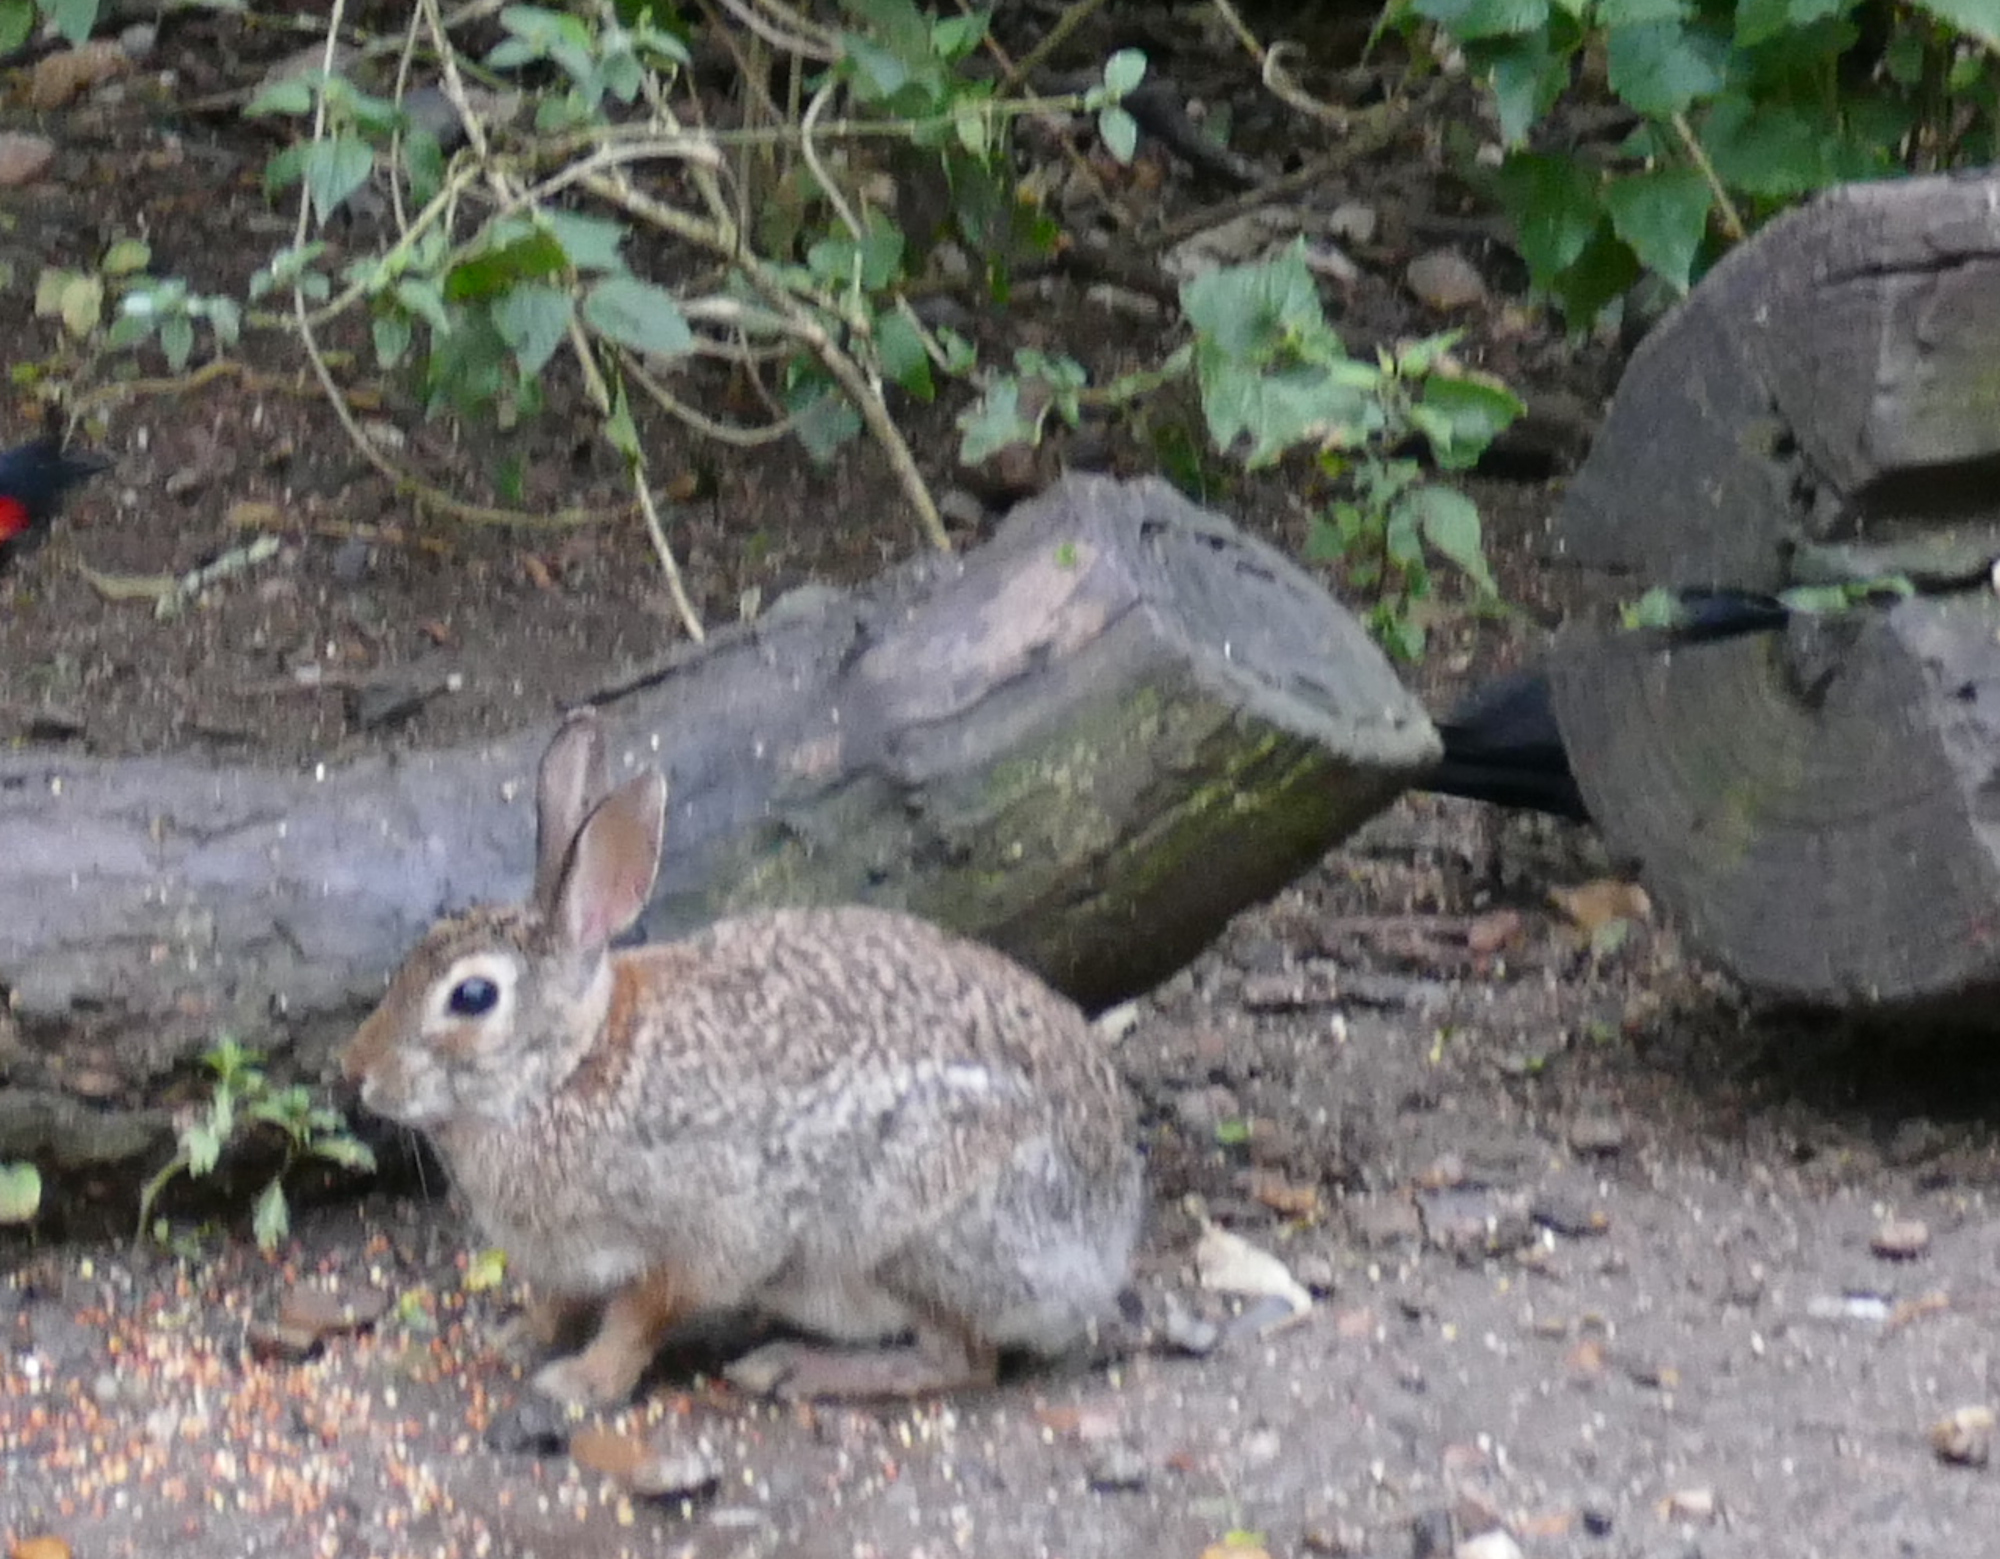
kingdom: Animalia
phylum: Chordata
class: Mammalia
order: Lagomorpha
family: Leporidae
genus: Sylvilagus
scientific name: Sylvilagus floridanus
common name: Eastern cottontail
